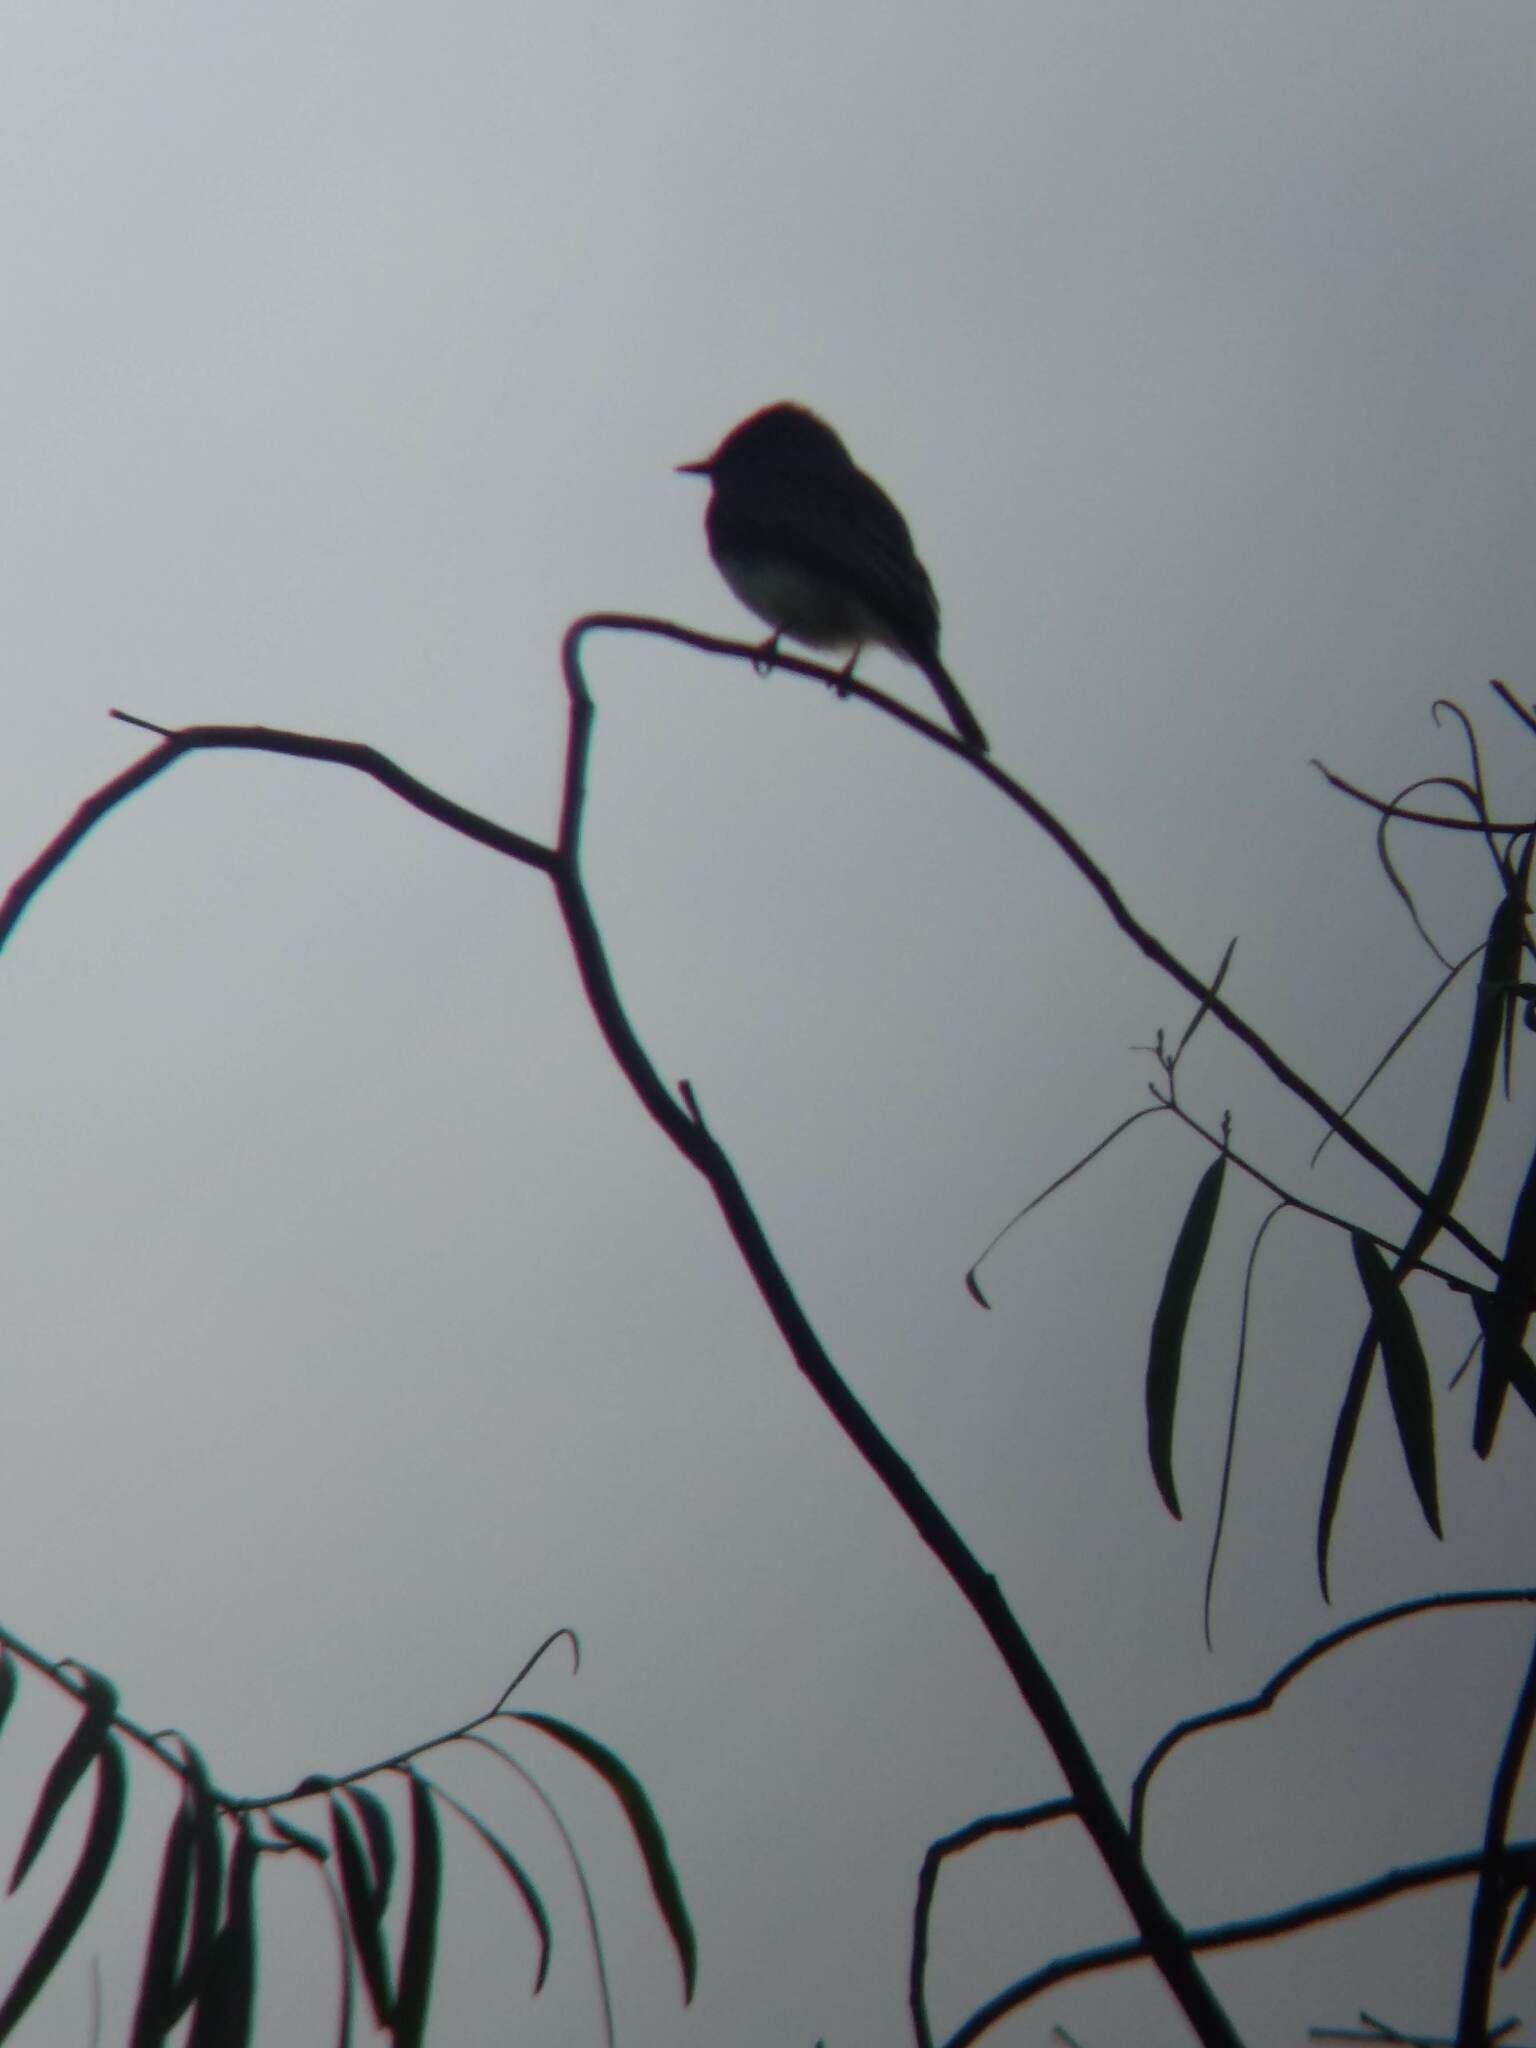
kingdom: Animalia
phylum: Chordata
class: Aves
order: Passeriformes
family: Tyrannidae
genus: Sayornis
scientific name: Sayornis nigricans
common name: Black phoebe
